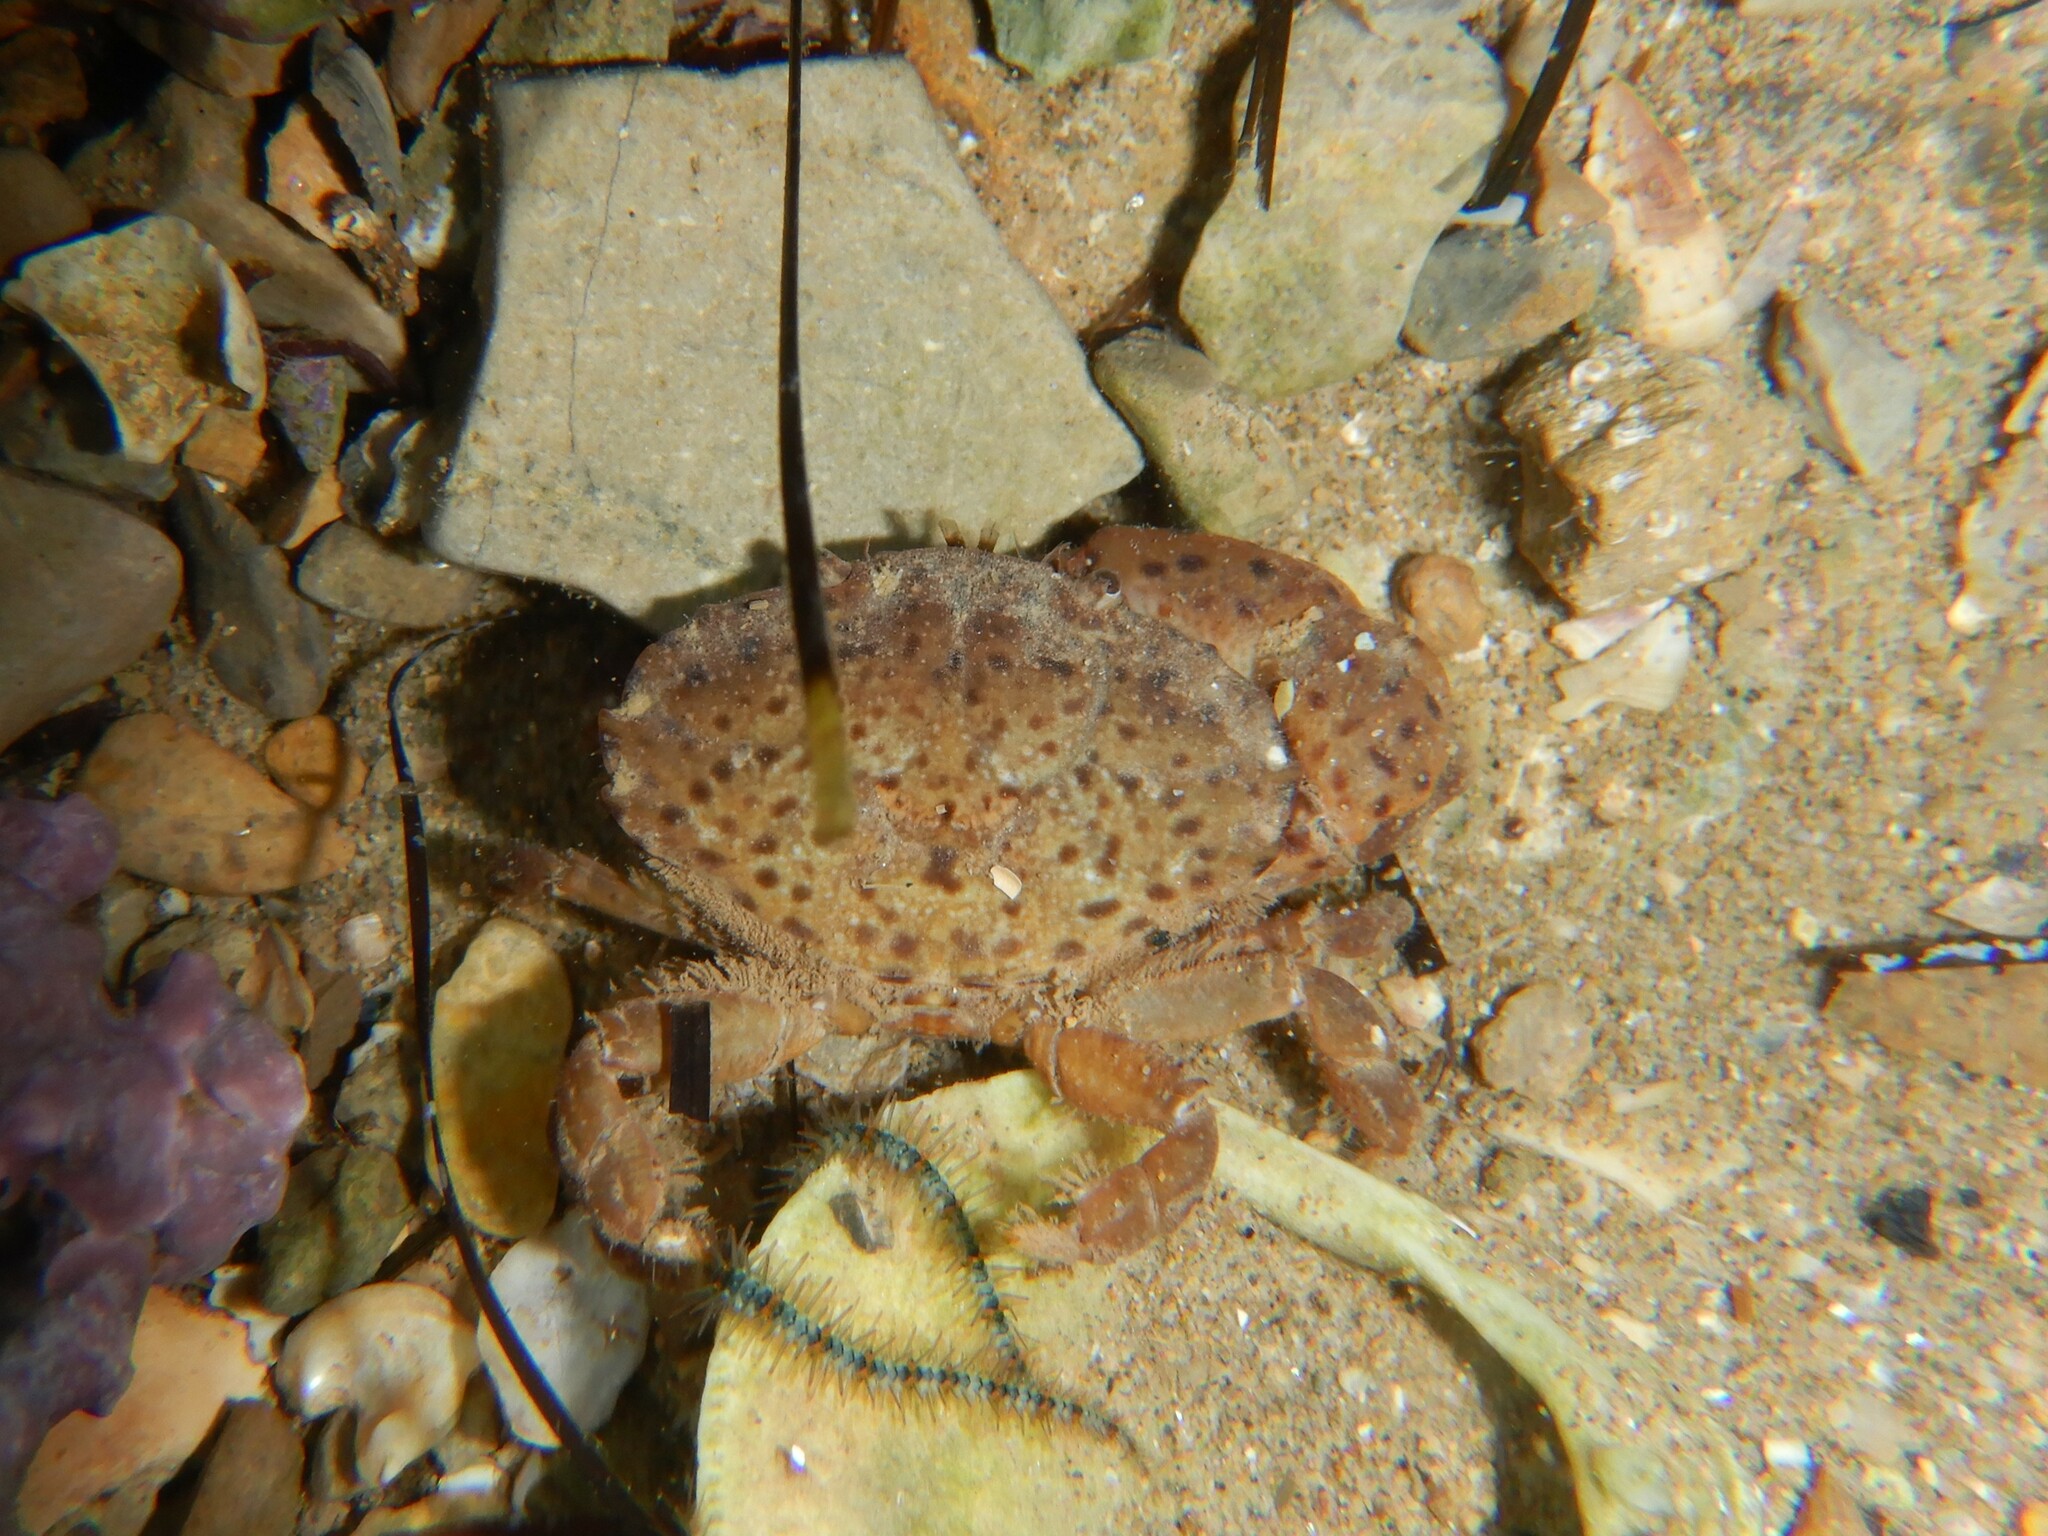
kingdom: Animalia
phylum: Arthropoda
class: Malacostraca
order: Decapoda
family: Xanthidae
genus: Xantho
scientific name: Xantho poressa
